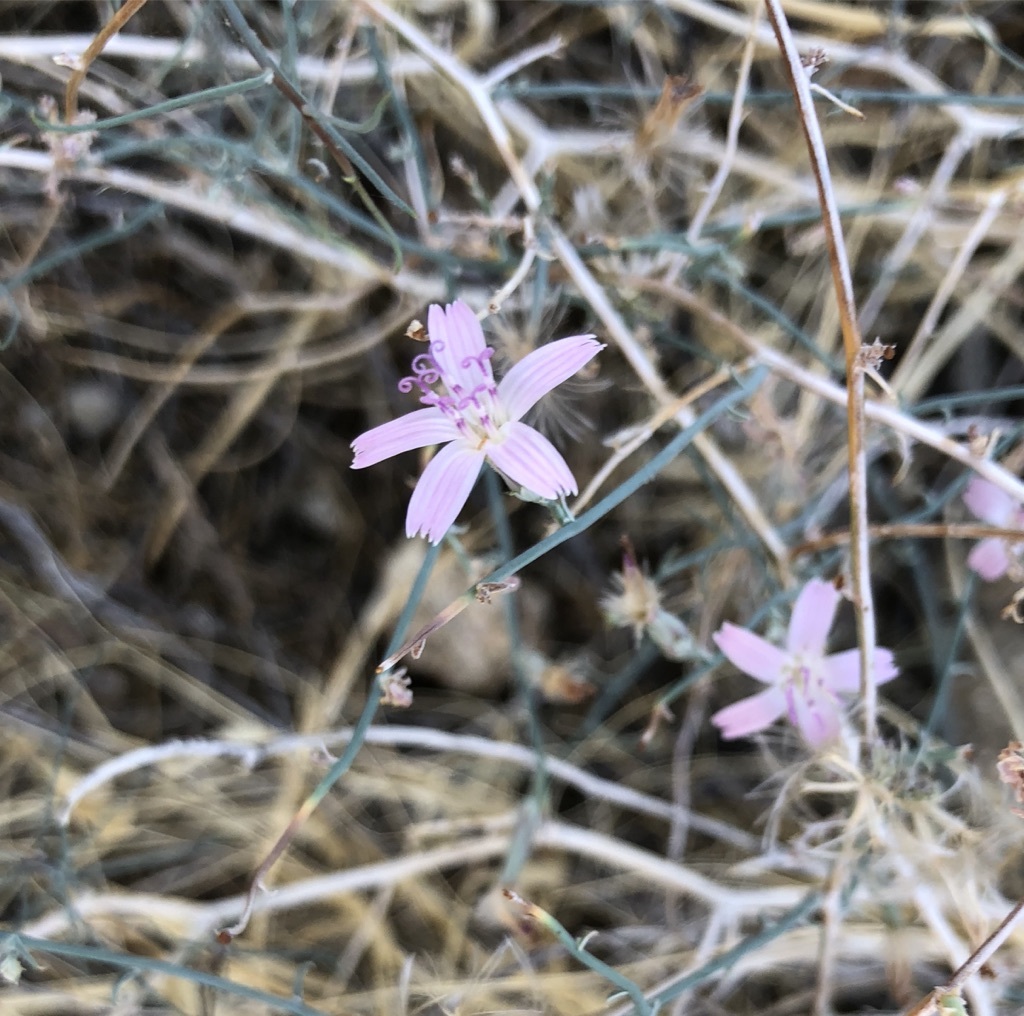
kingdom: Plantae
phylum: Tracheophyta
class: Magnoliopsida
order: Asterales
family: Asteraceae
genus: Stephanomeria
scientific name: Stephanomeria
